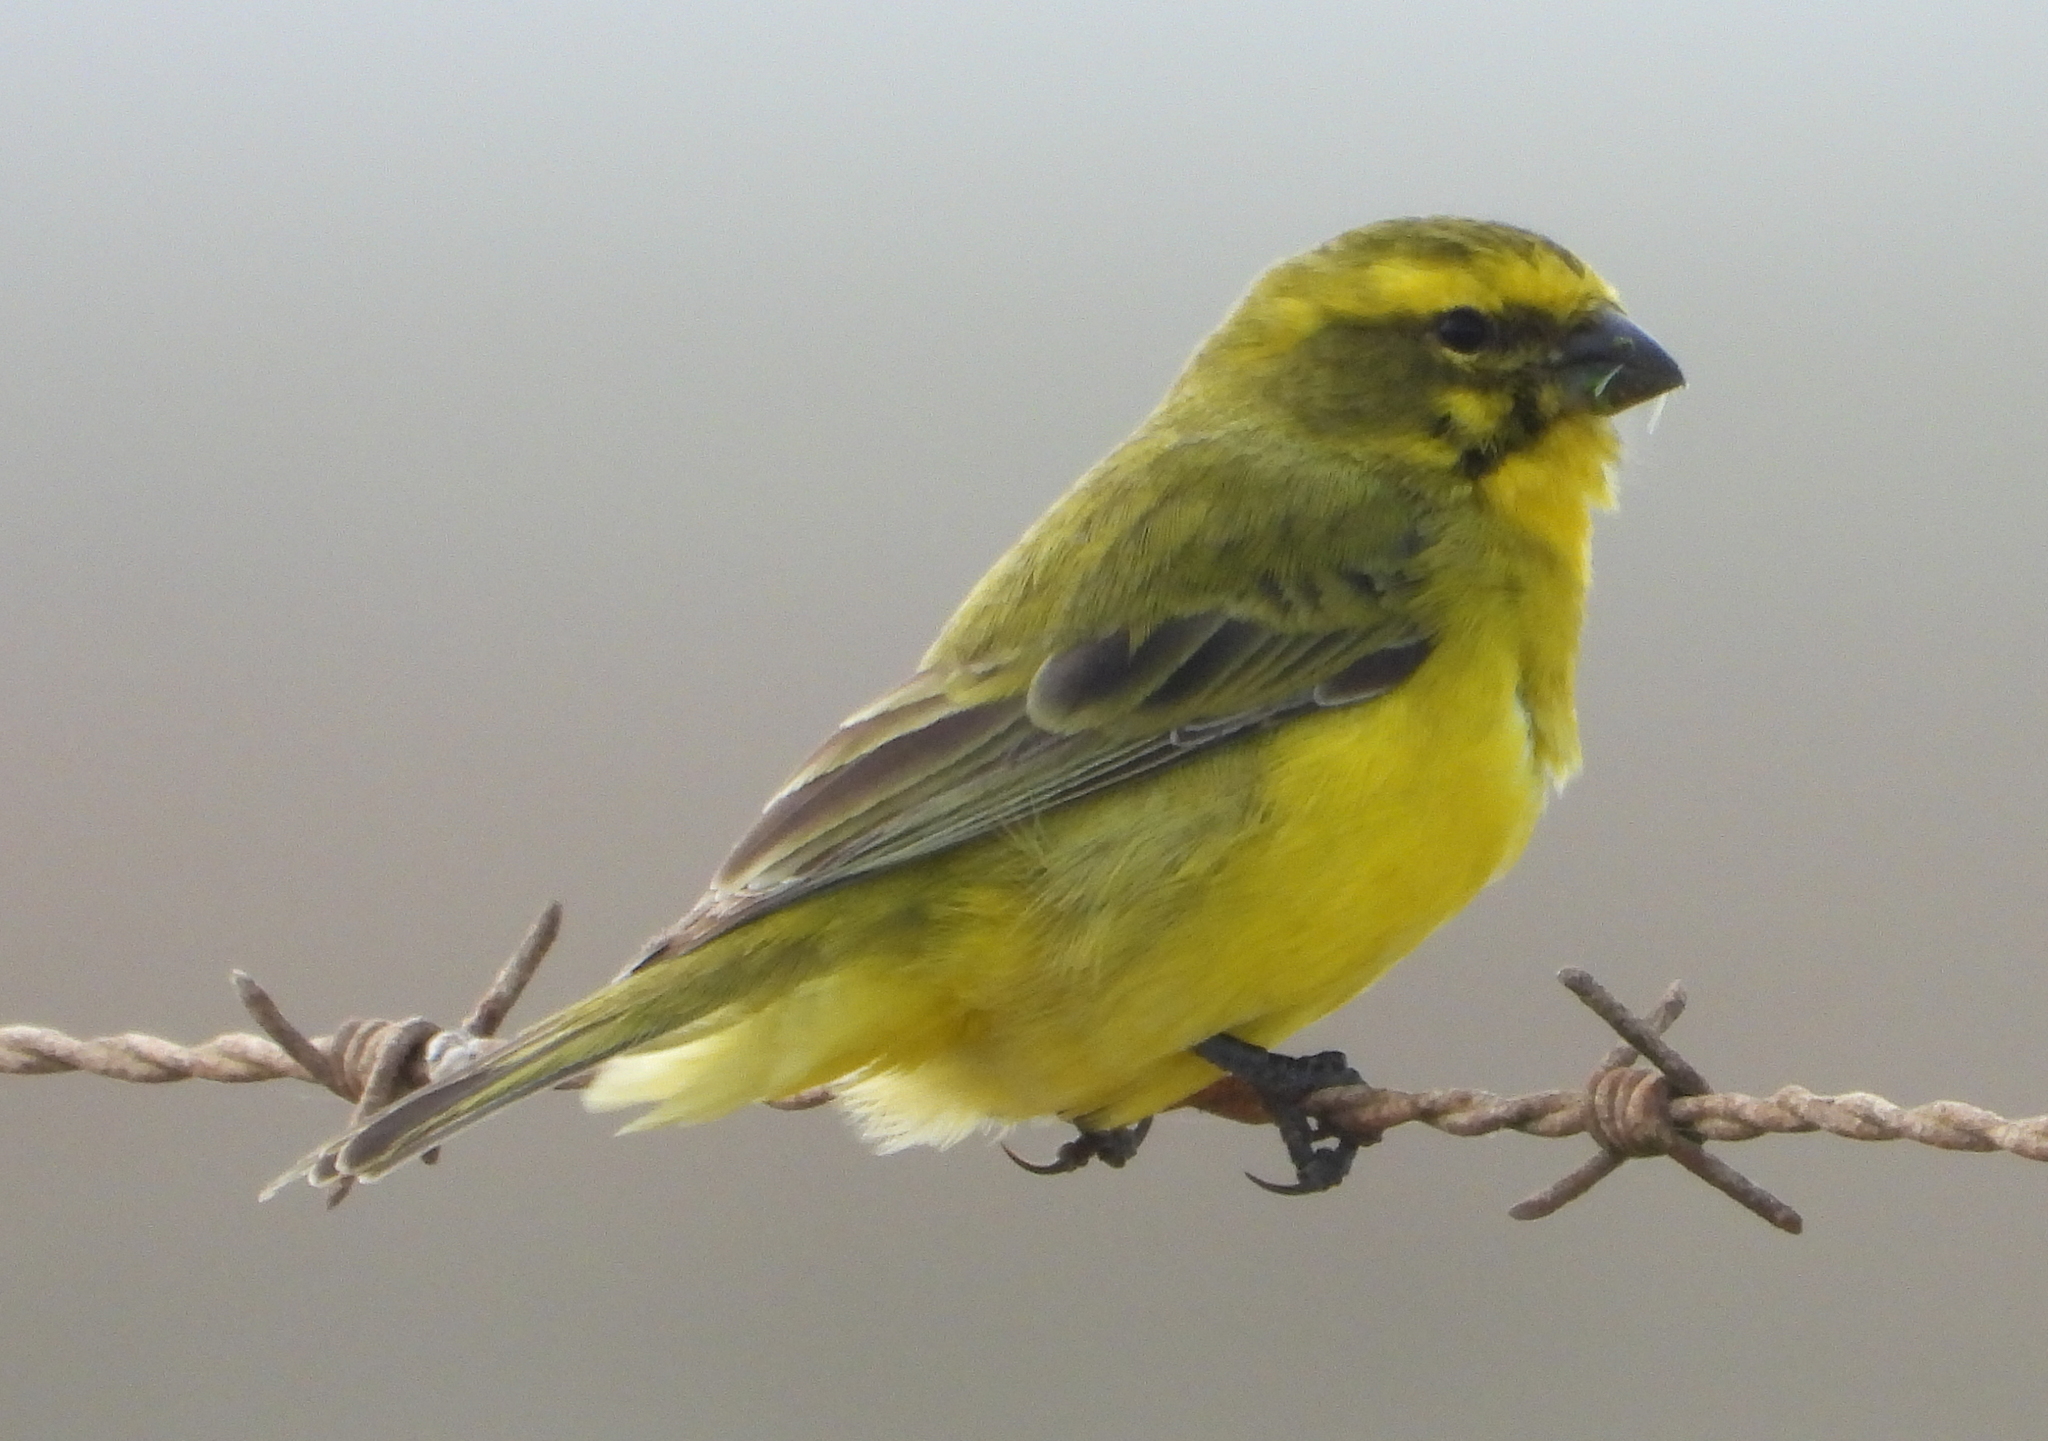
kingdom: Animalia
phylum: Chordata
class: Aves
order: Passeriformes
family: Fringillidae
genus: Crithagra
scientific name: Crithagra flaviventris
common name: Yellow canary
